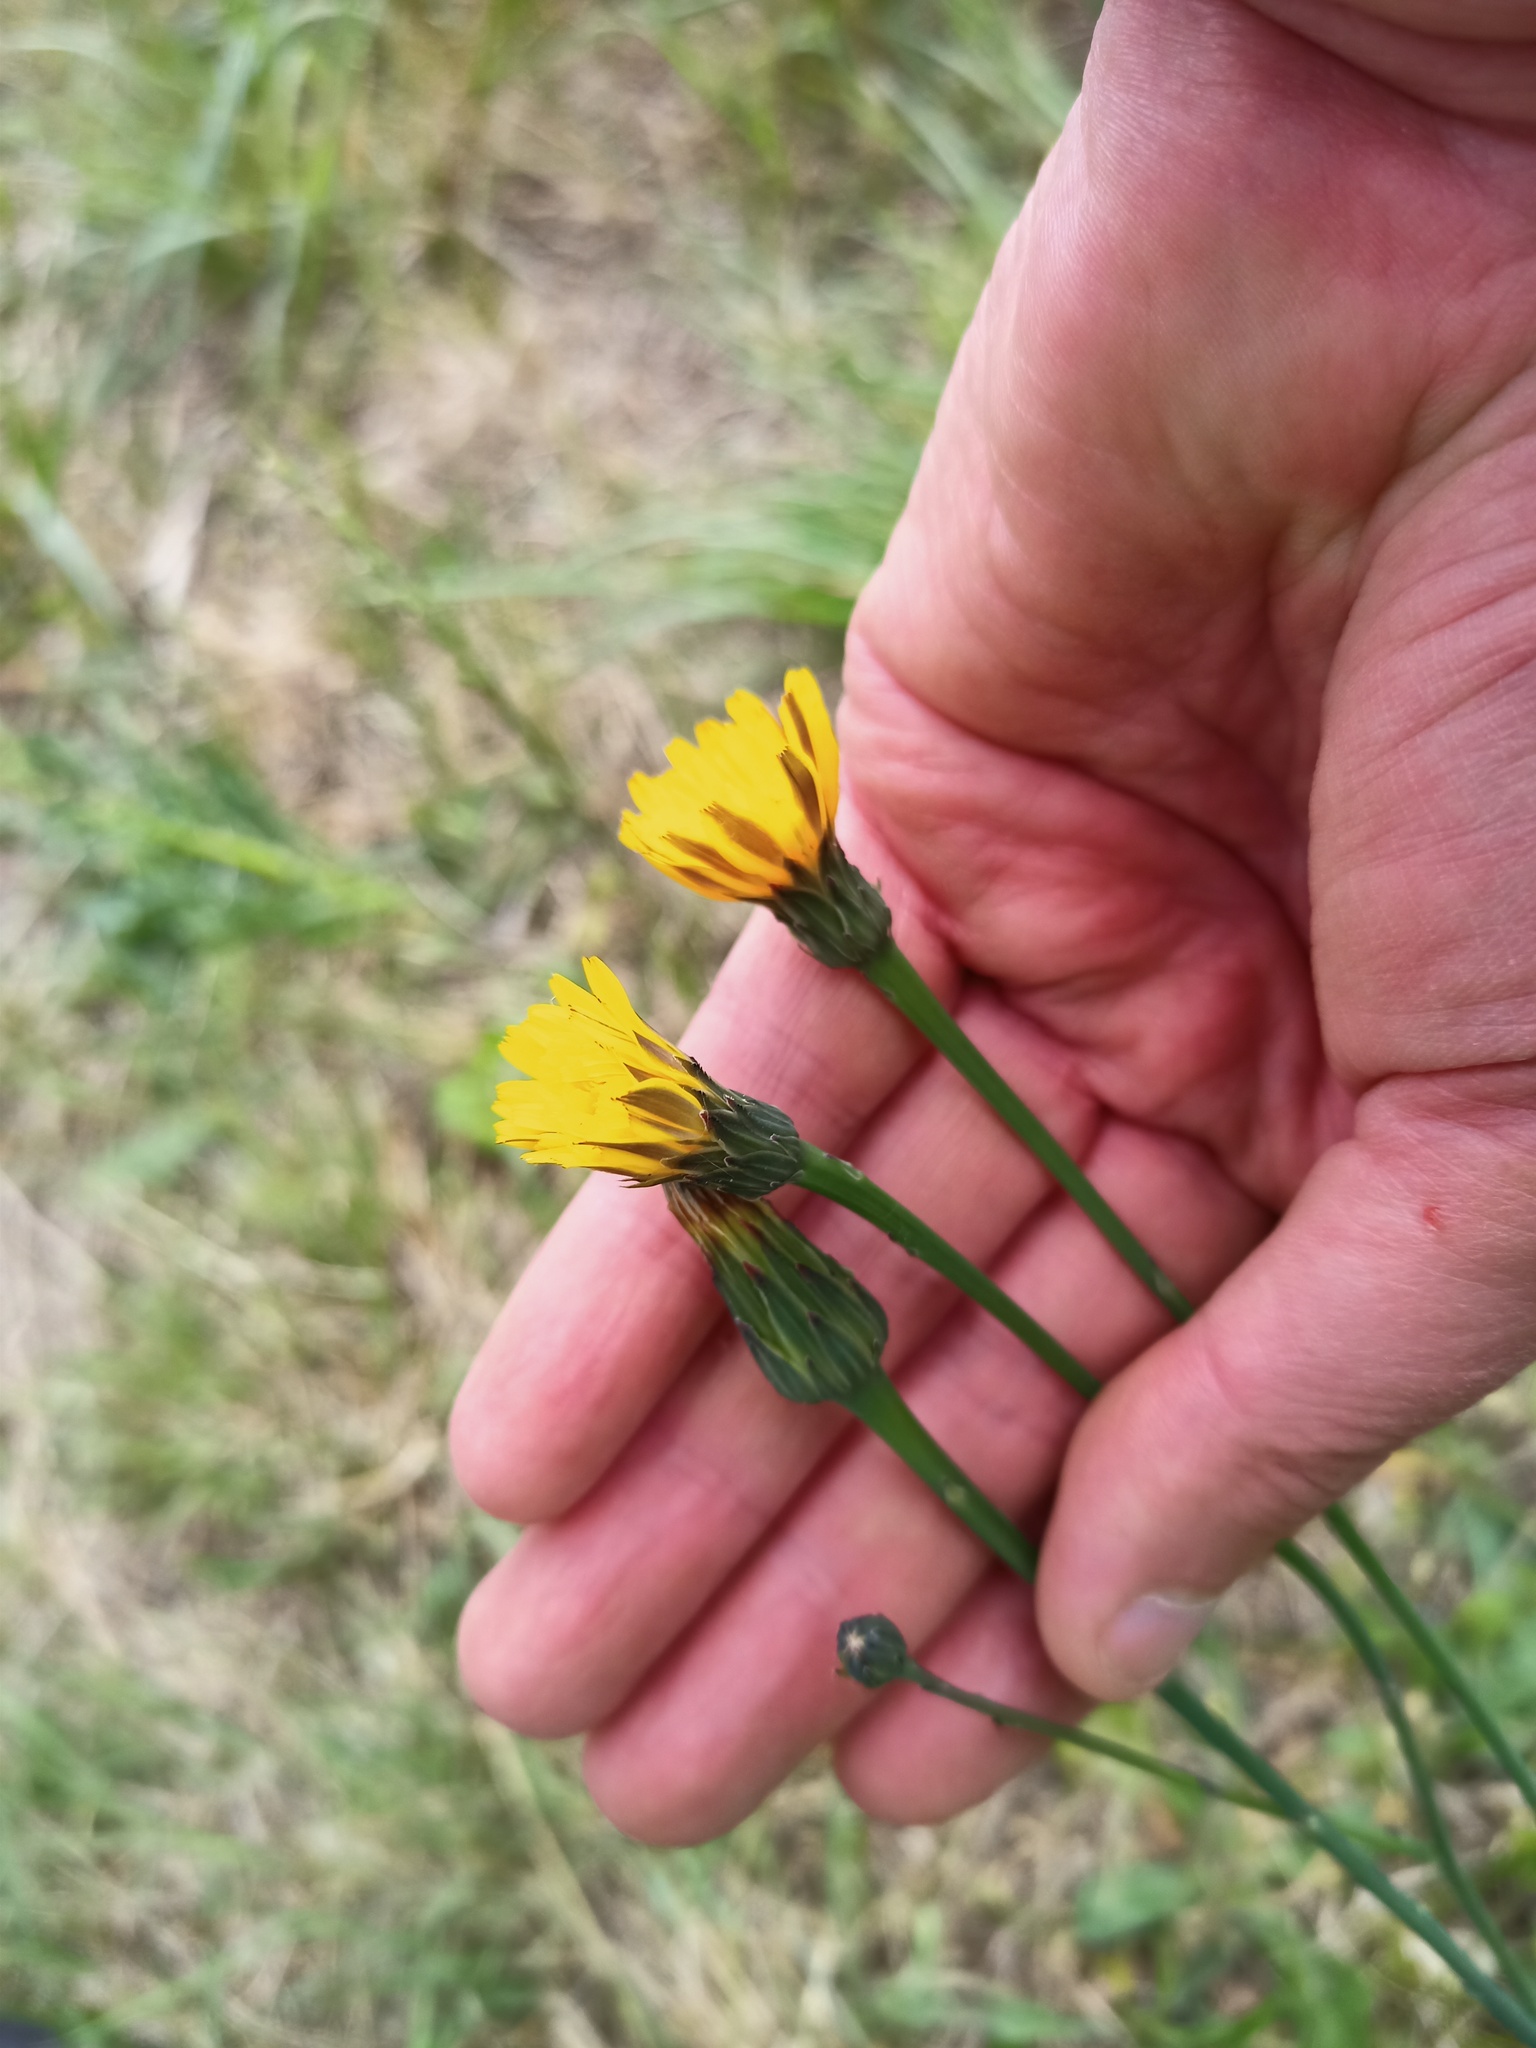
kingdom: Plantae
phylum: Tracheophyta
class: Magnoliopsida
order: Asterales
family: Asteraceae
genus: Hypochaeris
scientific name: Hypochaeris radicata
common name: Flatweed
